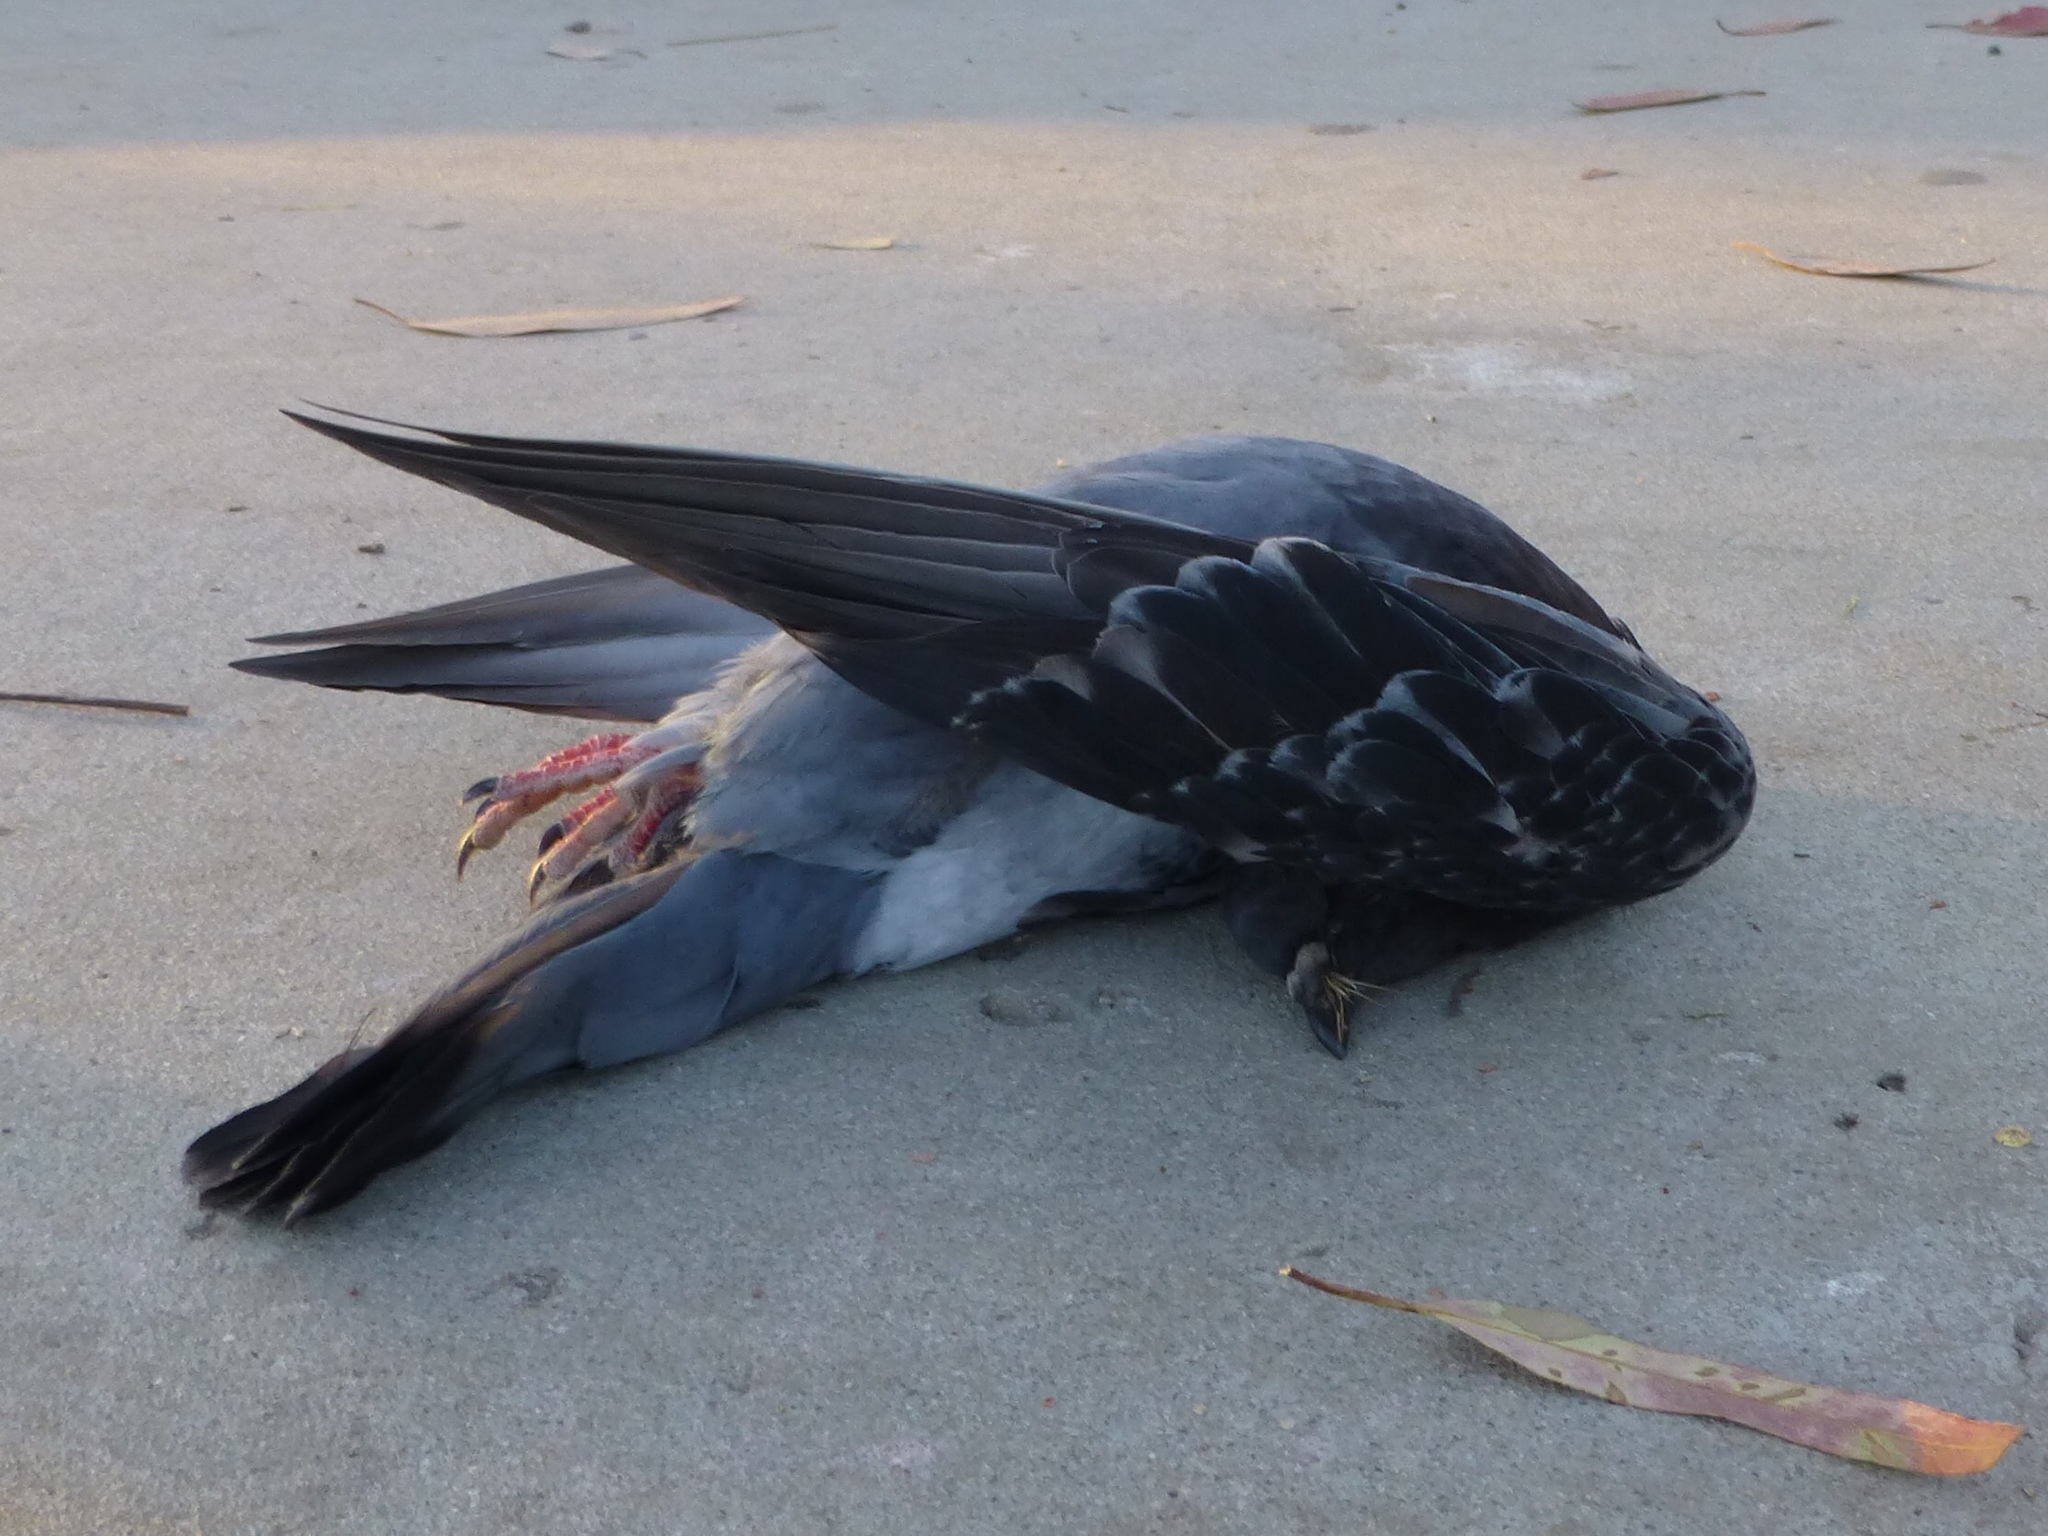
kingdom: Animalia
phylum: Chordata
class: Aves
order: Columbiformes
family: Columbidae
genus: Columba
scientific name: Columba livia
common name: Rock pigeon
